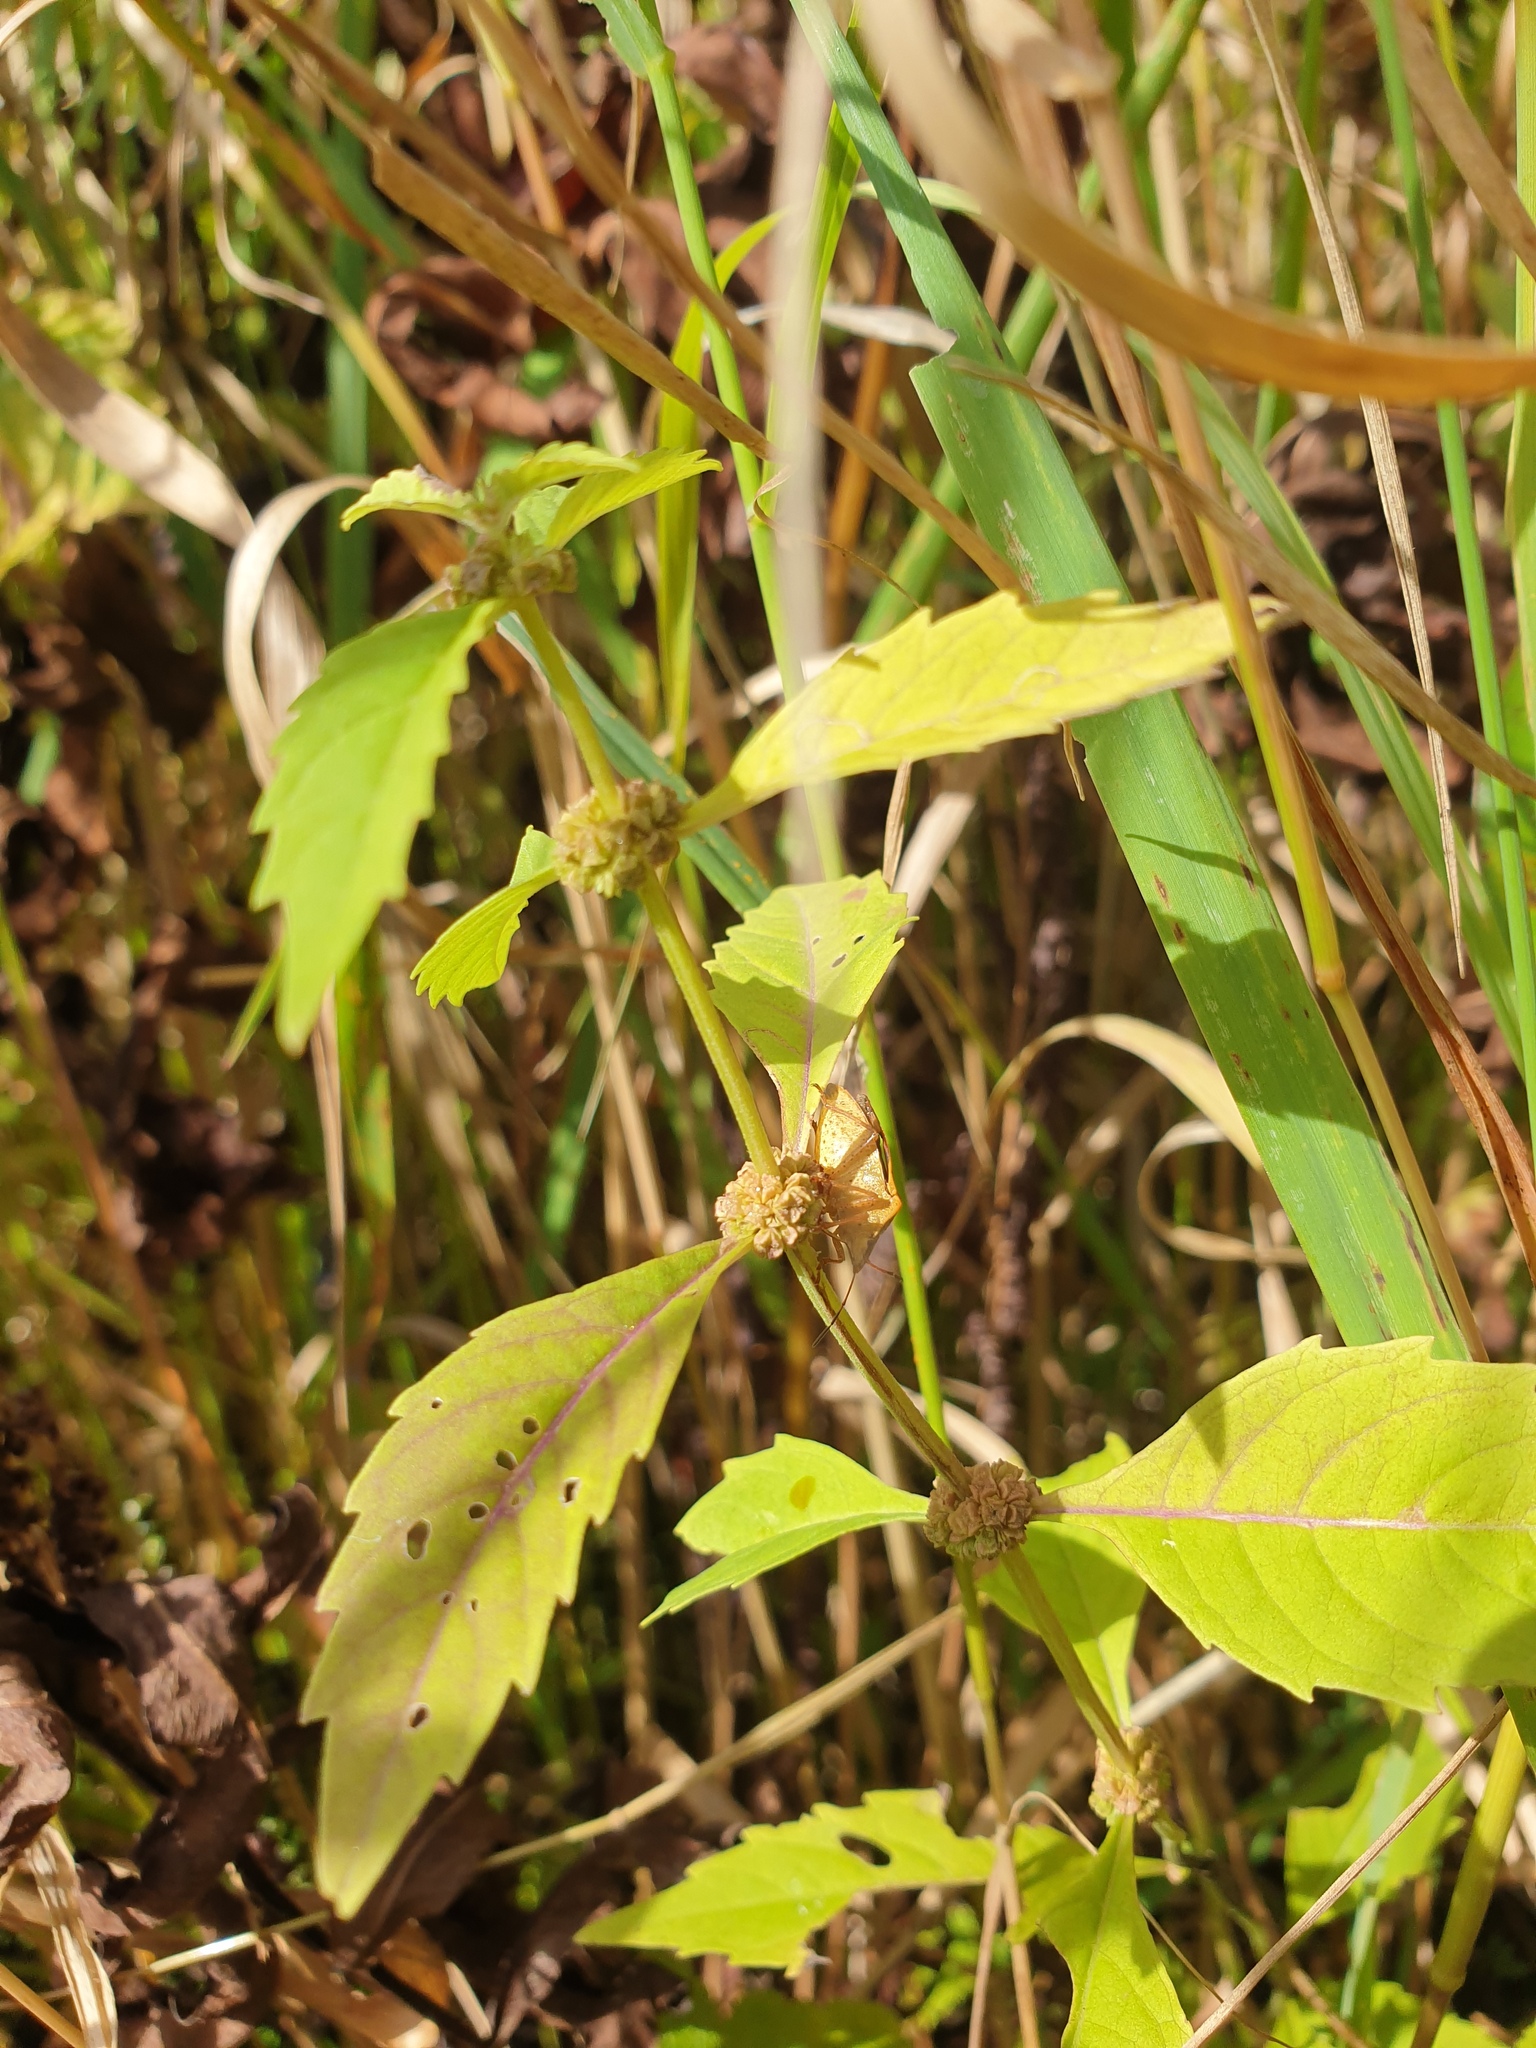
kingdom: Plantae
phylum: Tracheophyta
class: Magnoliopsida
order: Lamiales
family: Lamiaceae
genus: Lycopus
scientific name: Lycopus uniflorus
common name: Northern bugleweed
